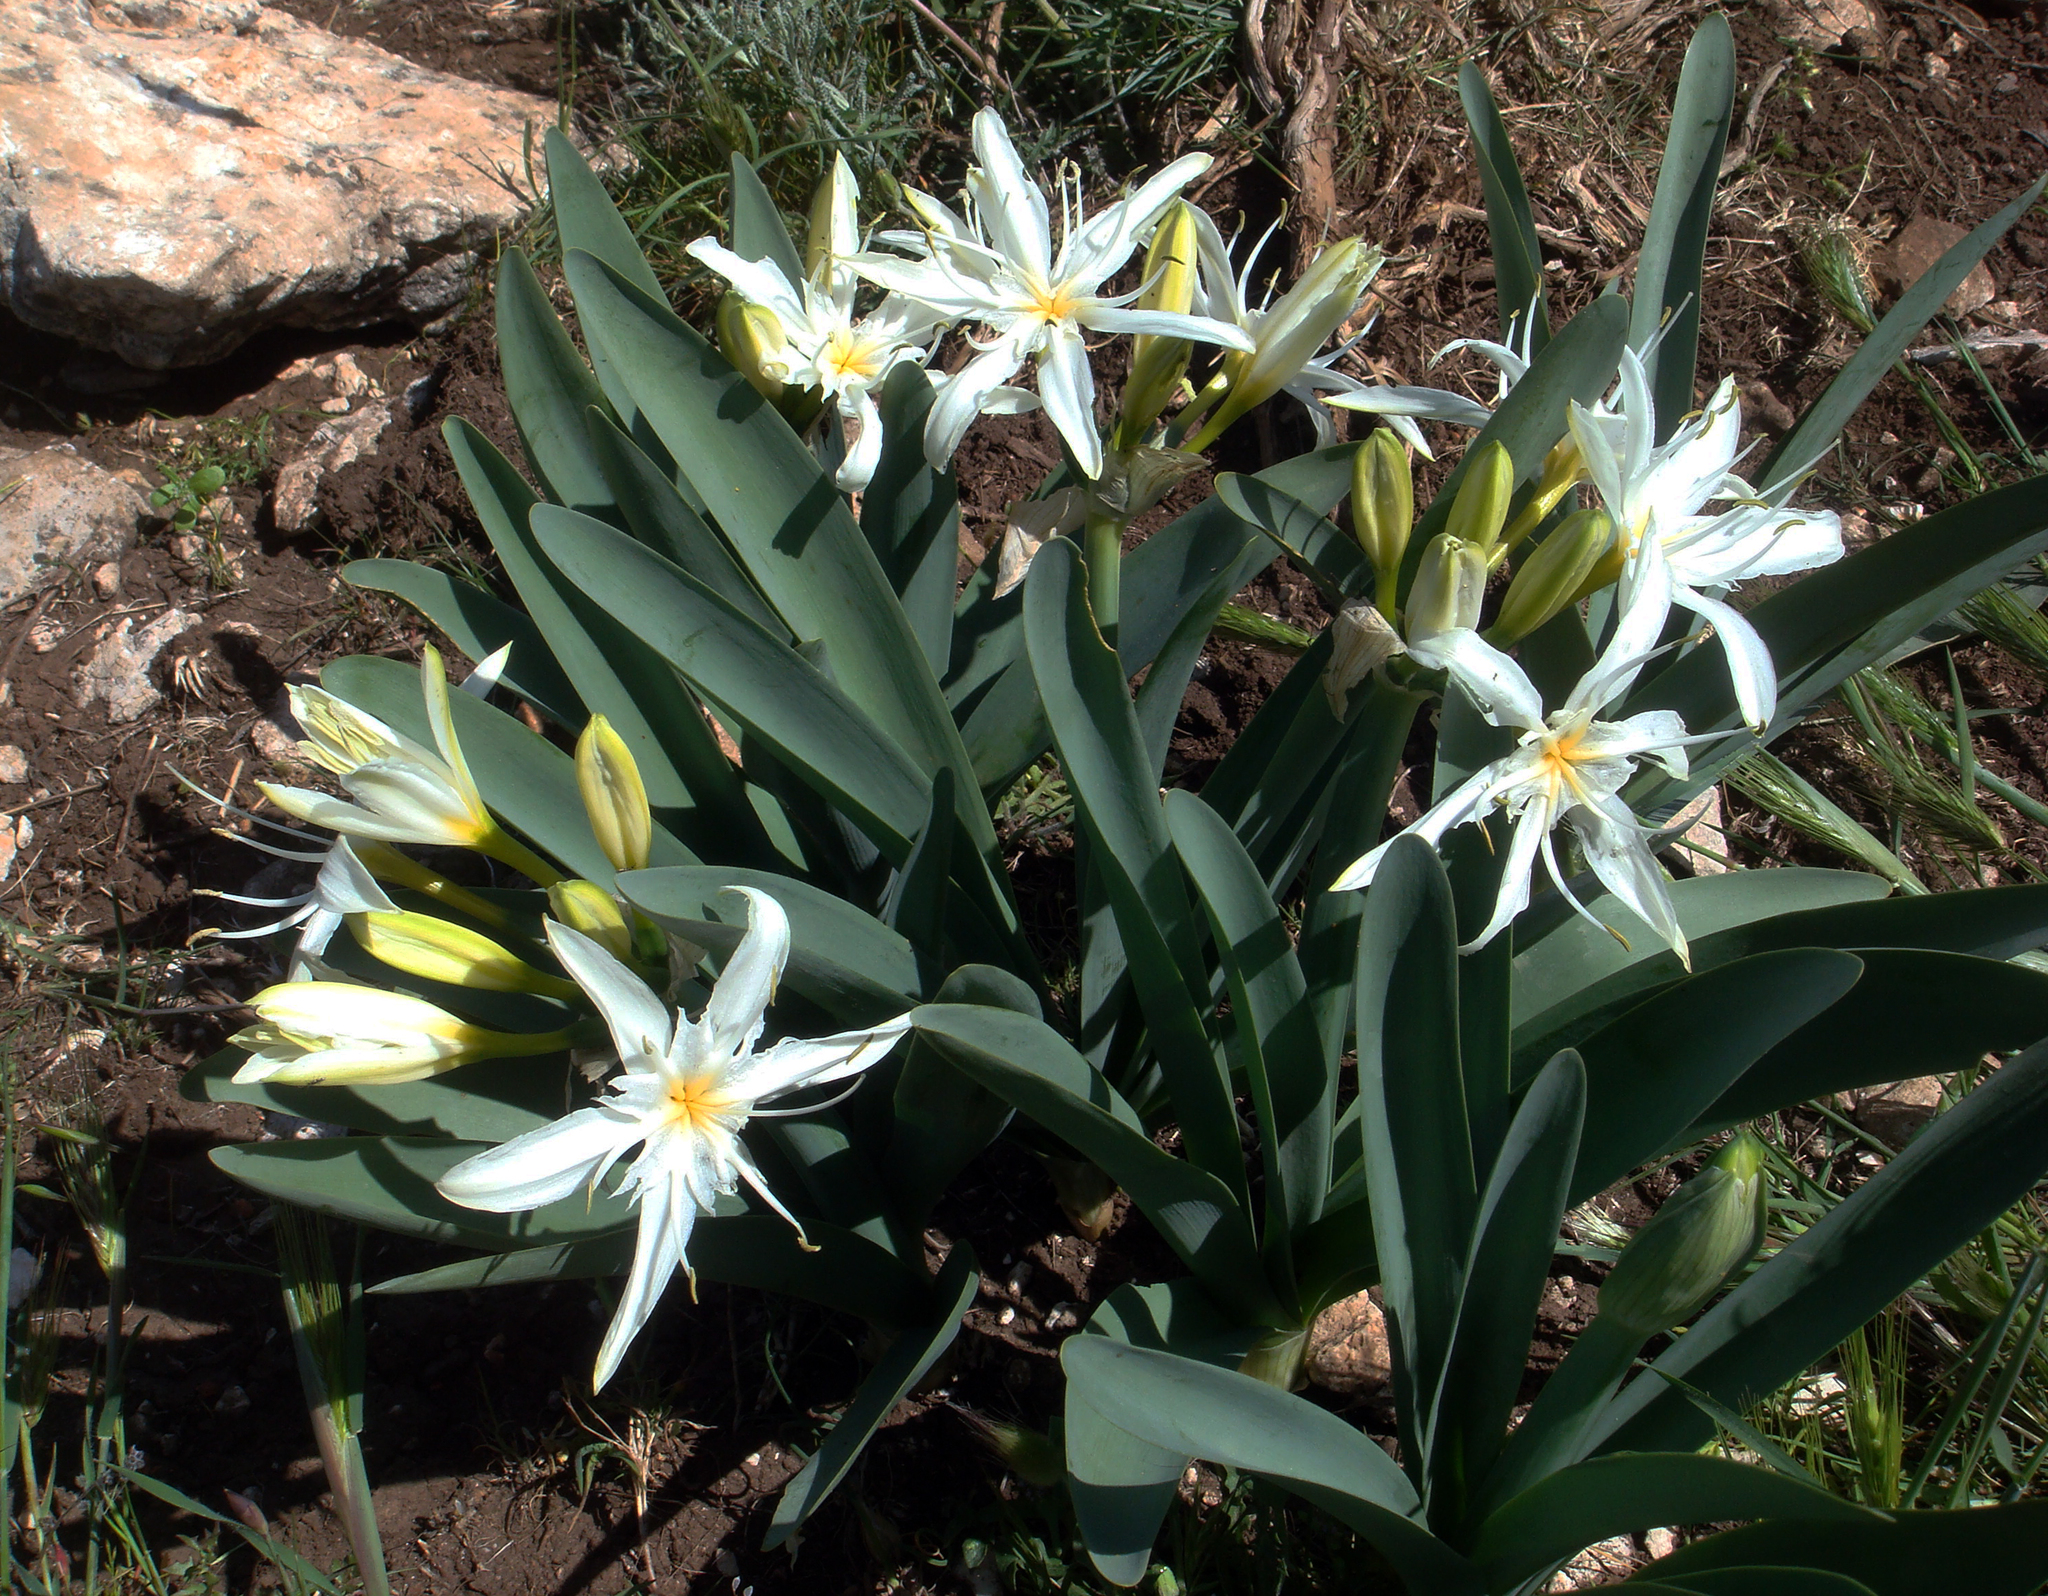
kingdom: Plantae
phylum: Tracheophyta
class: Liliopsida
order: Asparagales
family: Amaryllidaceae
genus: Pancratium
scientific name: Pancratium illyricum
